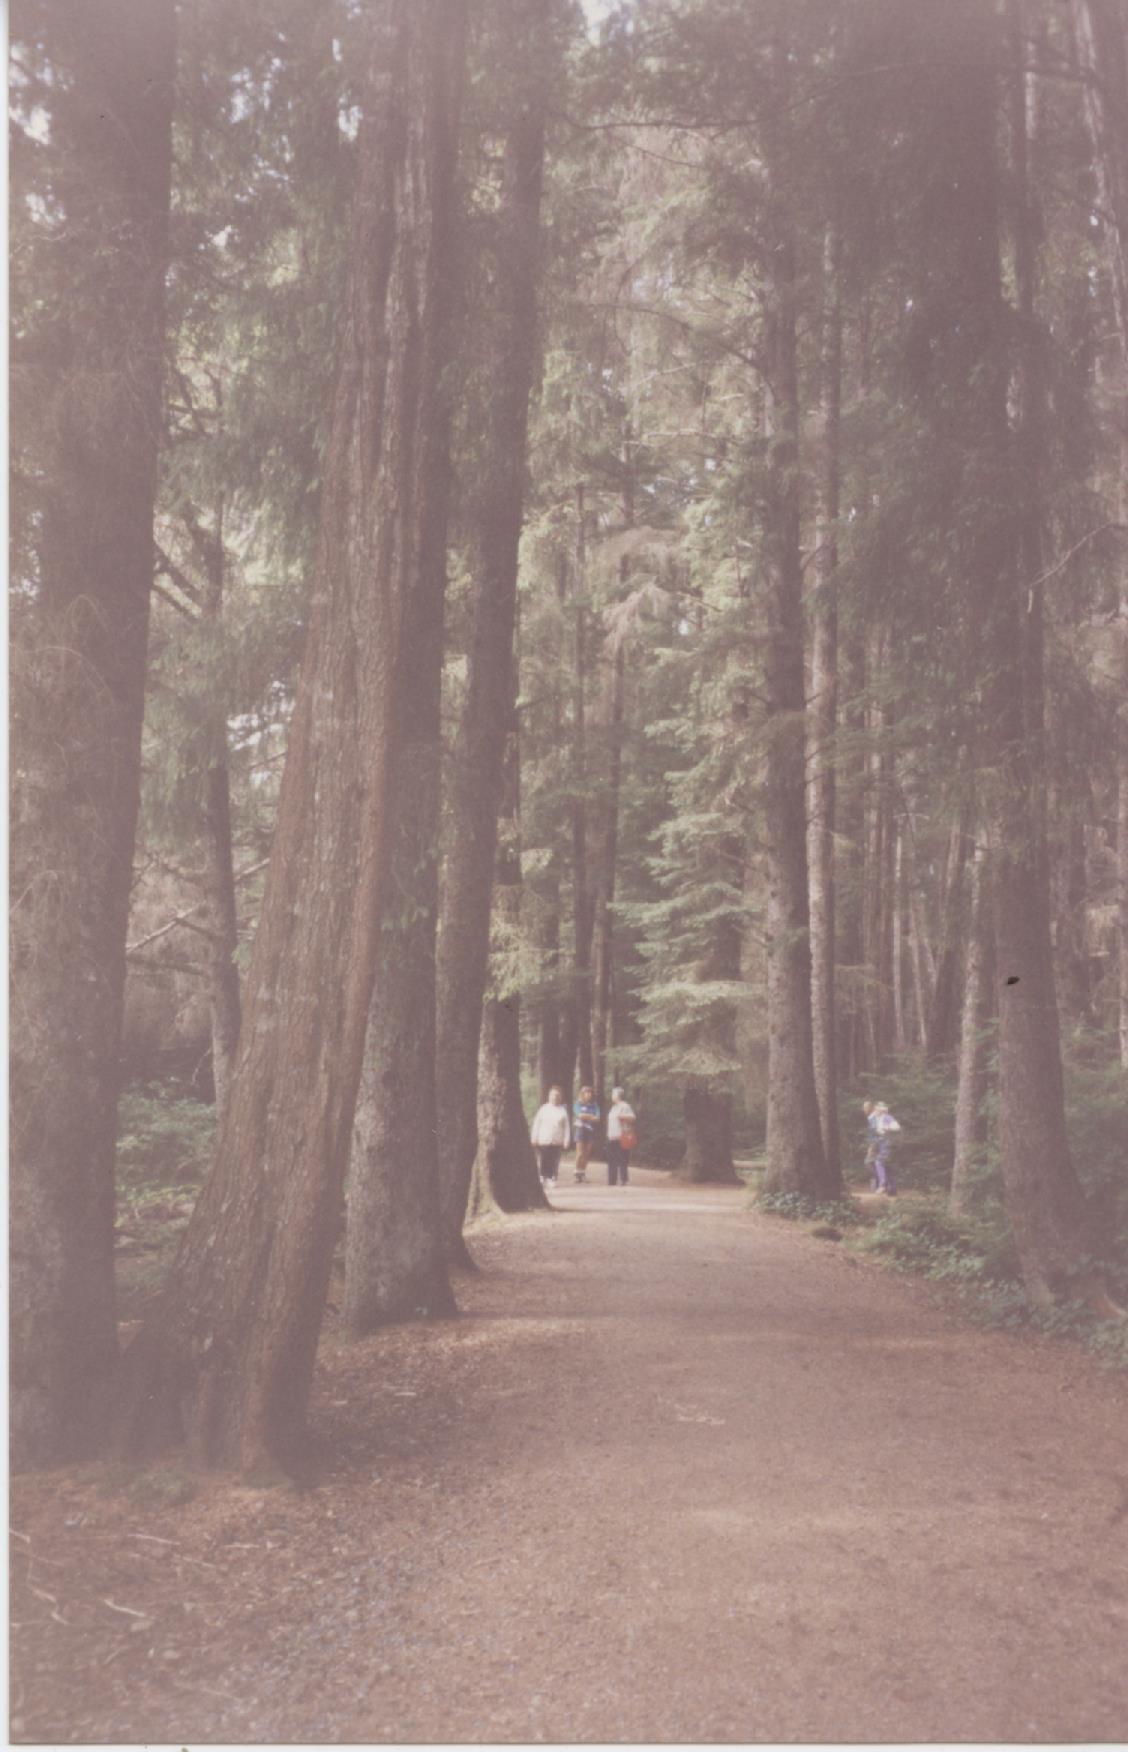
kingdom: Plantae
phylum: Tracheophyta
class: Pinopsida
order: Pinales
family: Pinaceae
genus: Picea
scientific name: Picea sitchensis
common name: Sitka spruce
